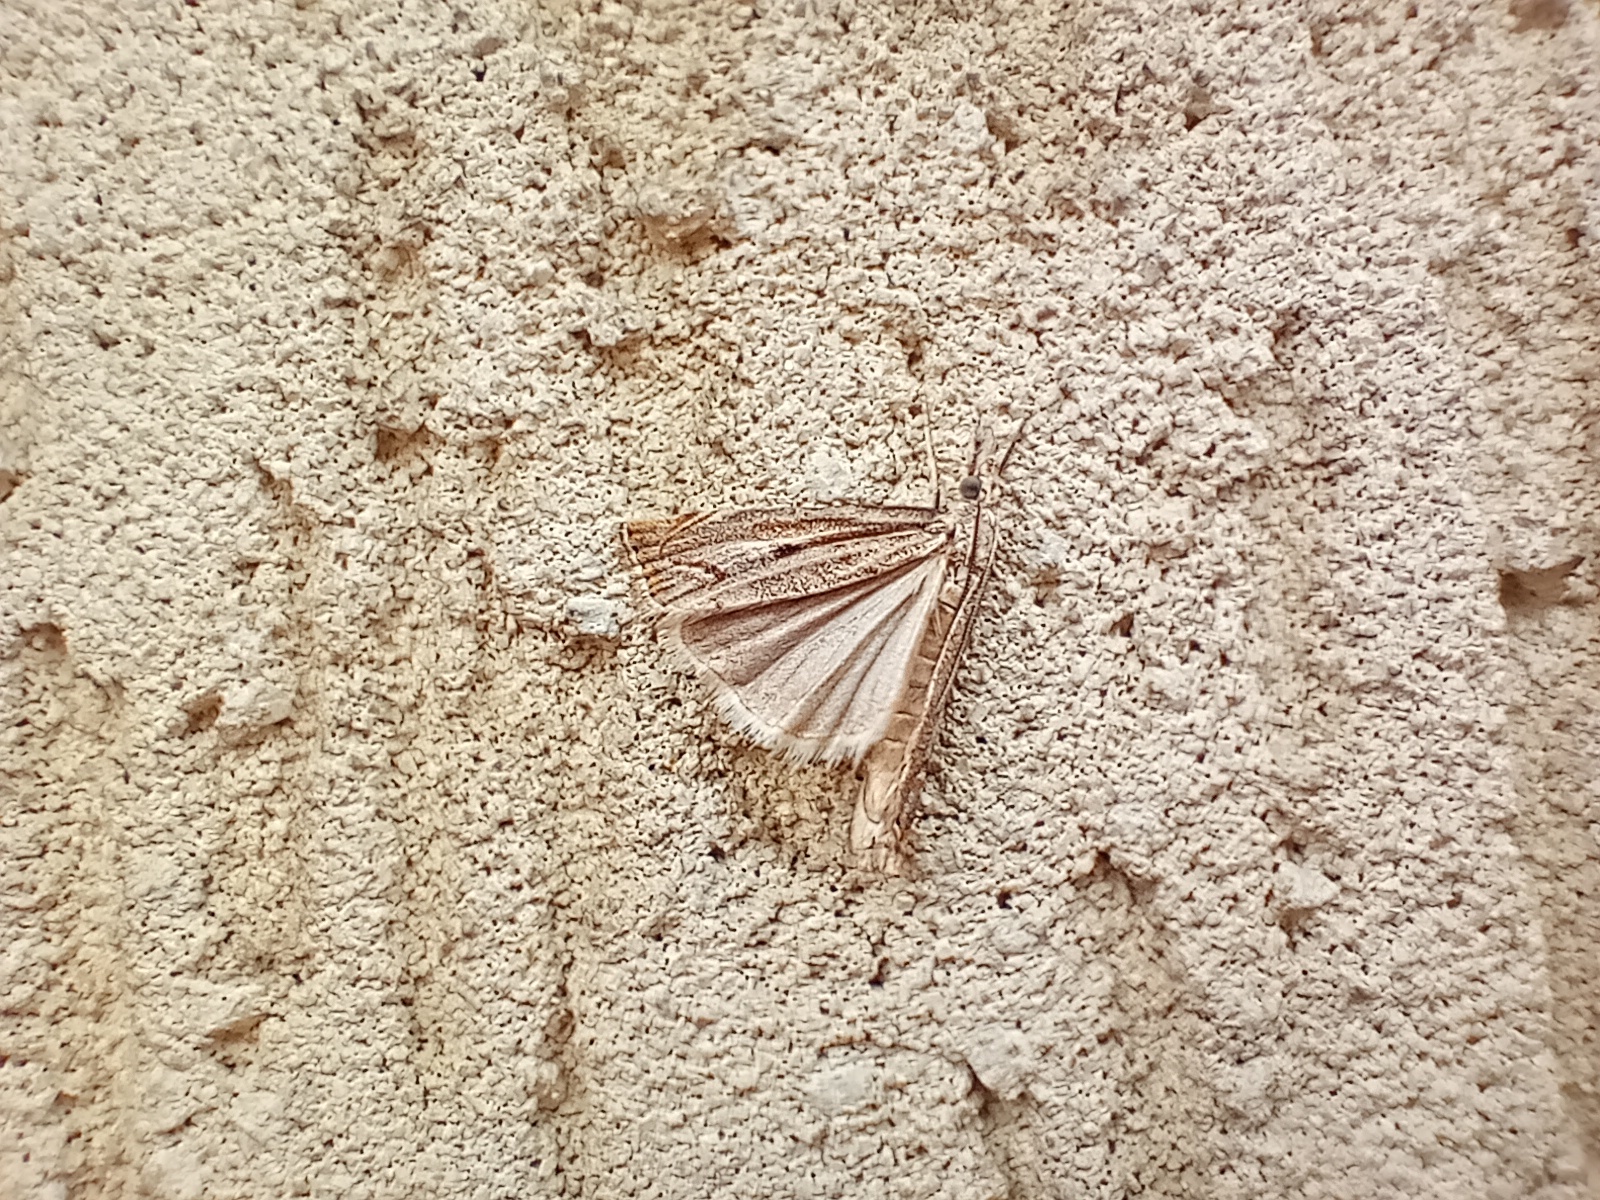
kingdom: Animalia
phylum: Arthropoda
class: Insecta
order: Lepidoptera
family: Crambidae
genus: Agriphila
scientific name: Agriphila geniculea
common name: Elbow-stripe grass-veneer
